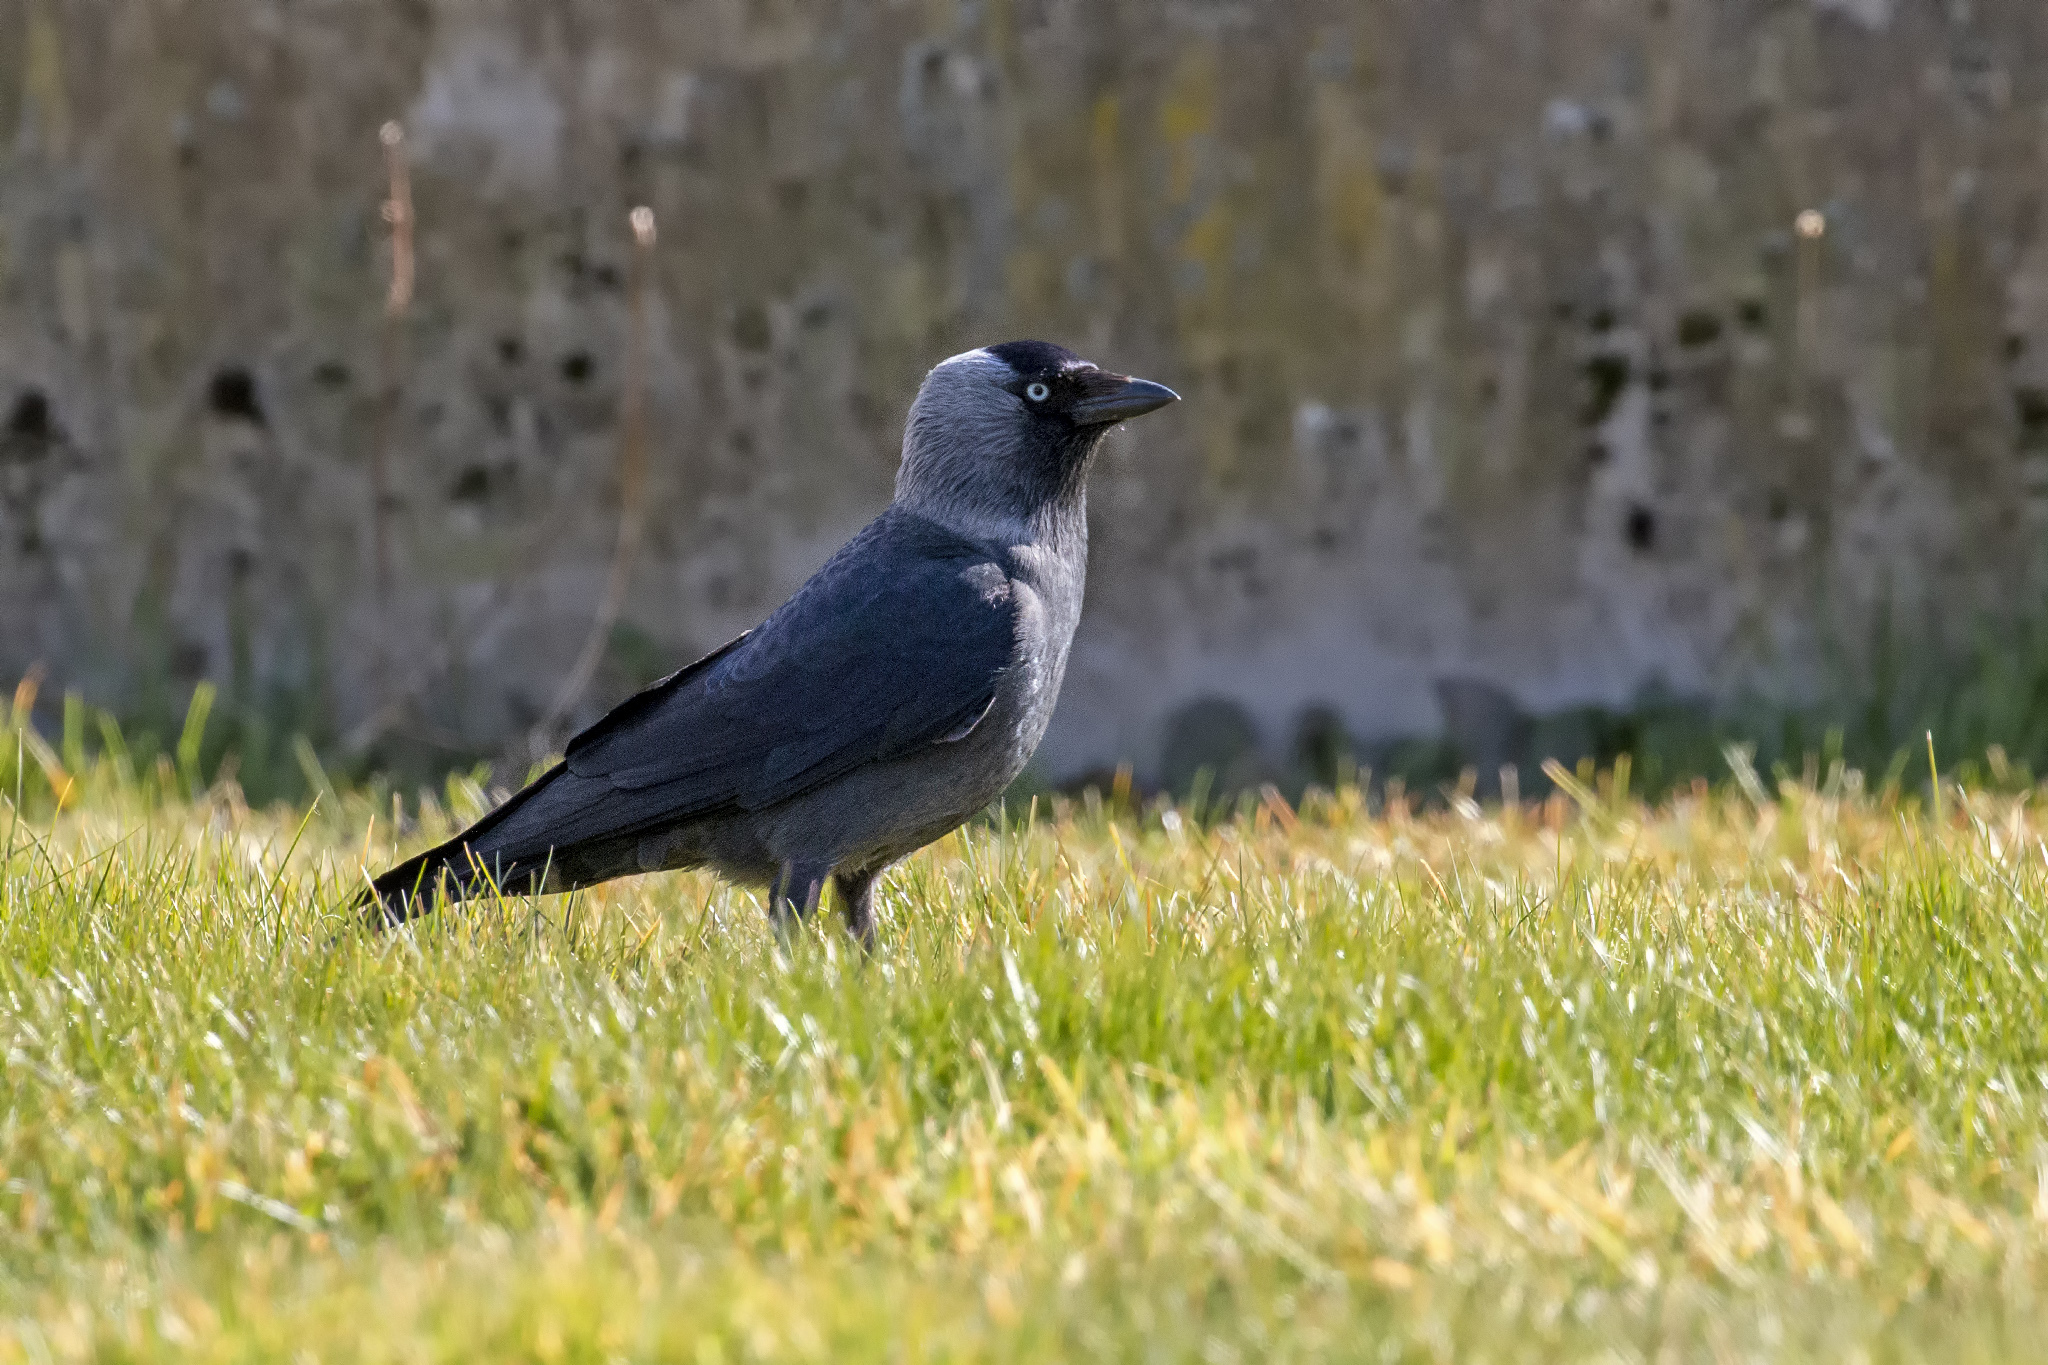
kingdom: Animalia
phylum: Chordata
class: Aves
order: Passeriformes
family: Corvidae
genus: Coloeus
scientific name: Coloeus monedula
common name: Western jackdaw
